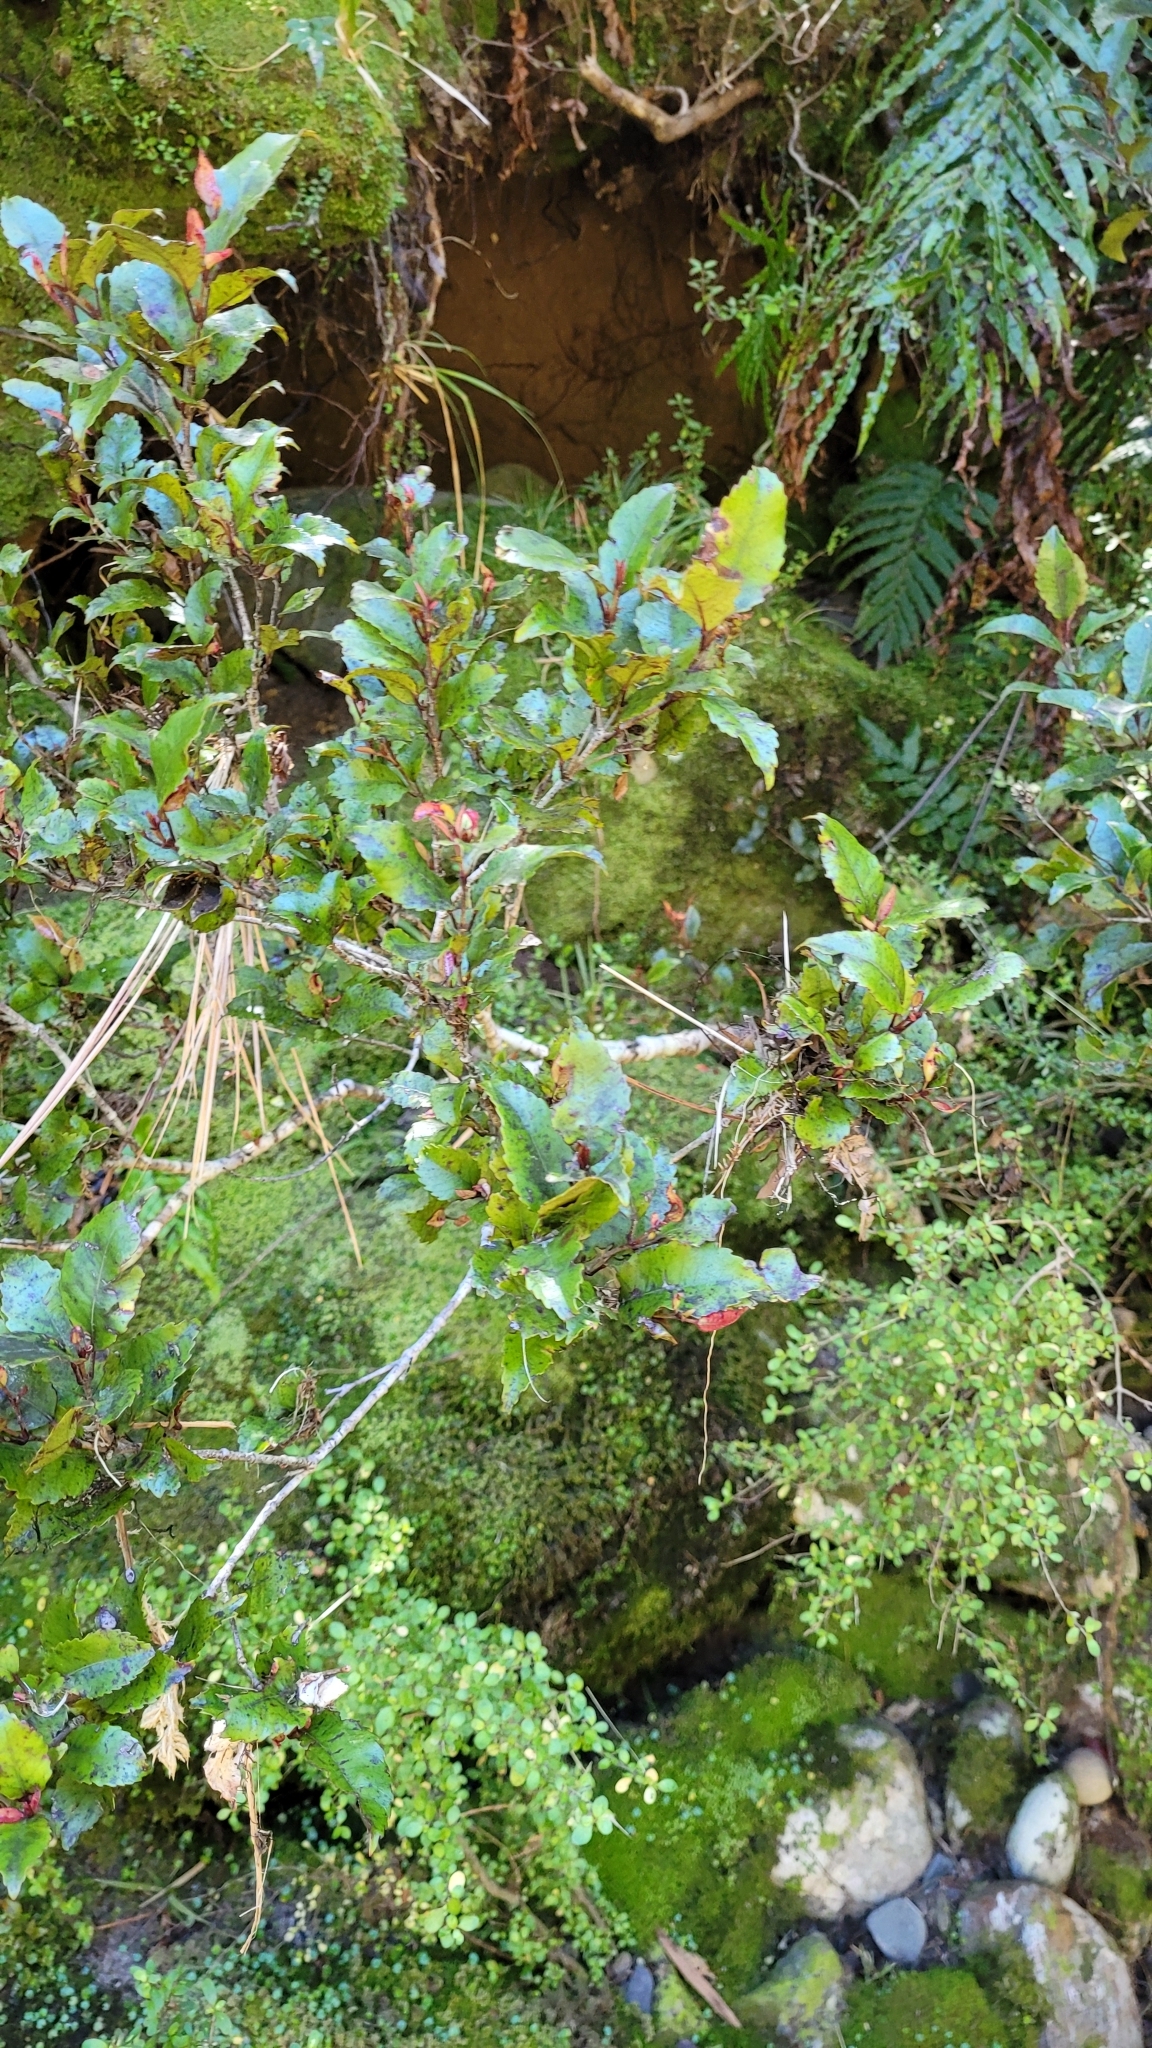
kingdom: Plantae
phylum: Tracheophyta
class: Magnoliopsida
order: Oxalidales
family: Cunoniaceae
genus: Pterophylla
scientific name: Pterophylla racemosa
